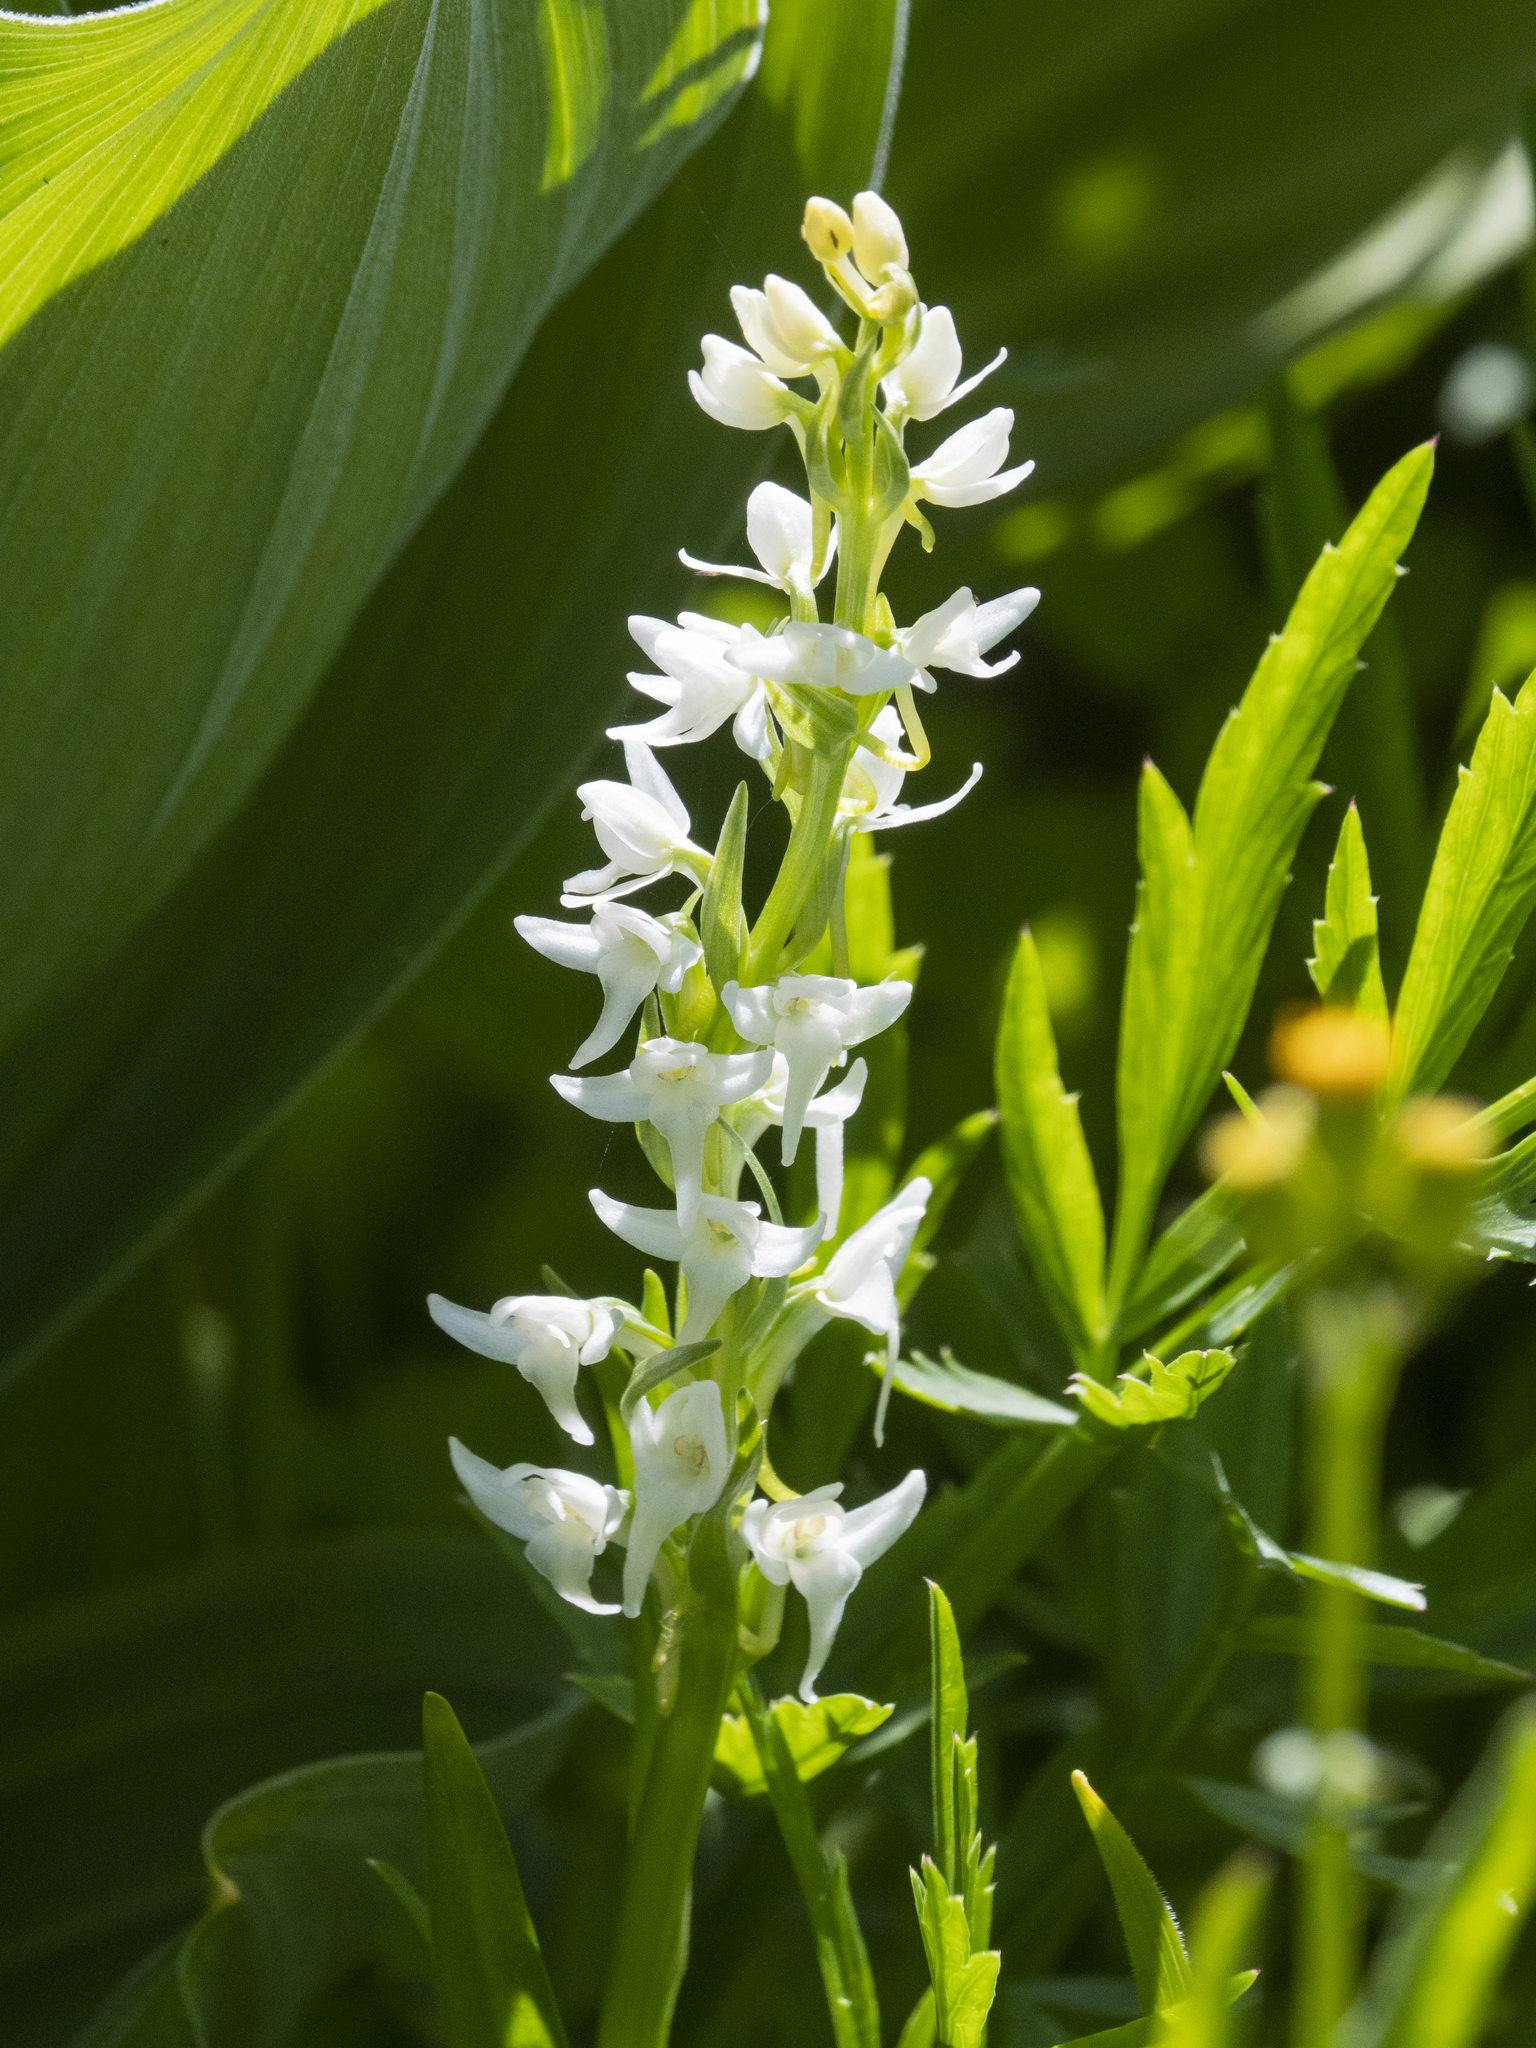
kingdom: Plantae
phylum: Tracheophyta
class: Liliopsida
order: Asparagales
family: Orchidaceae
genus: Platanthera
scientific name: Platanthera dilatata
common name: Bog candles
